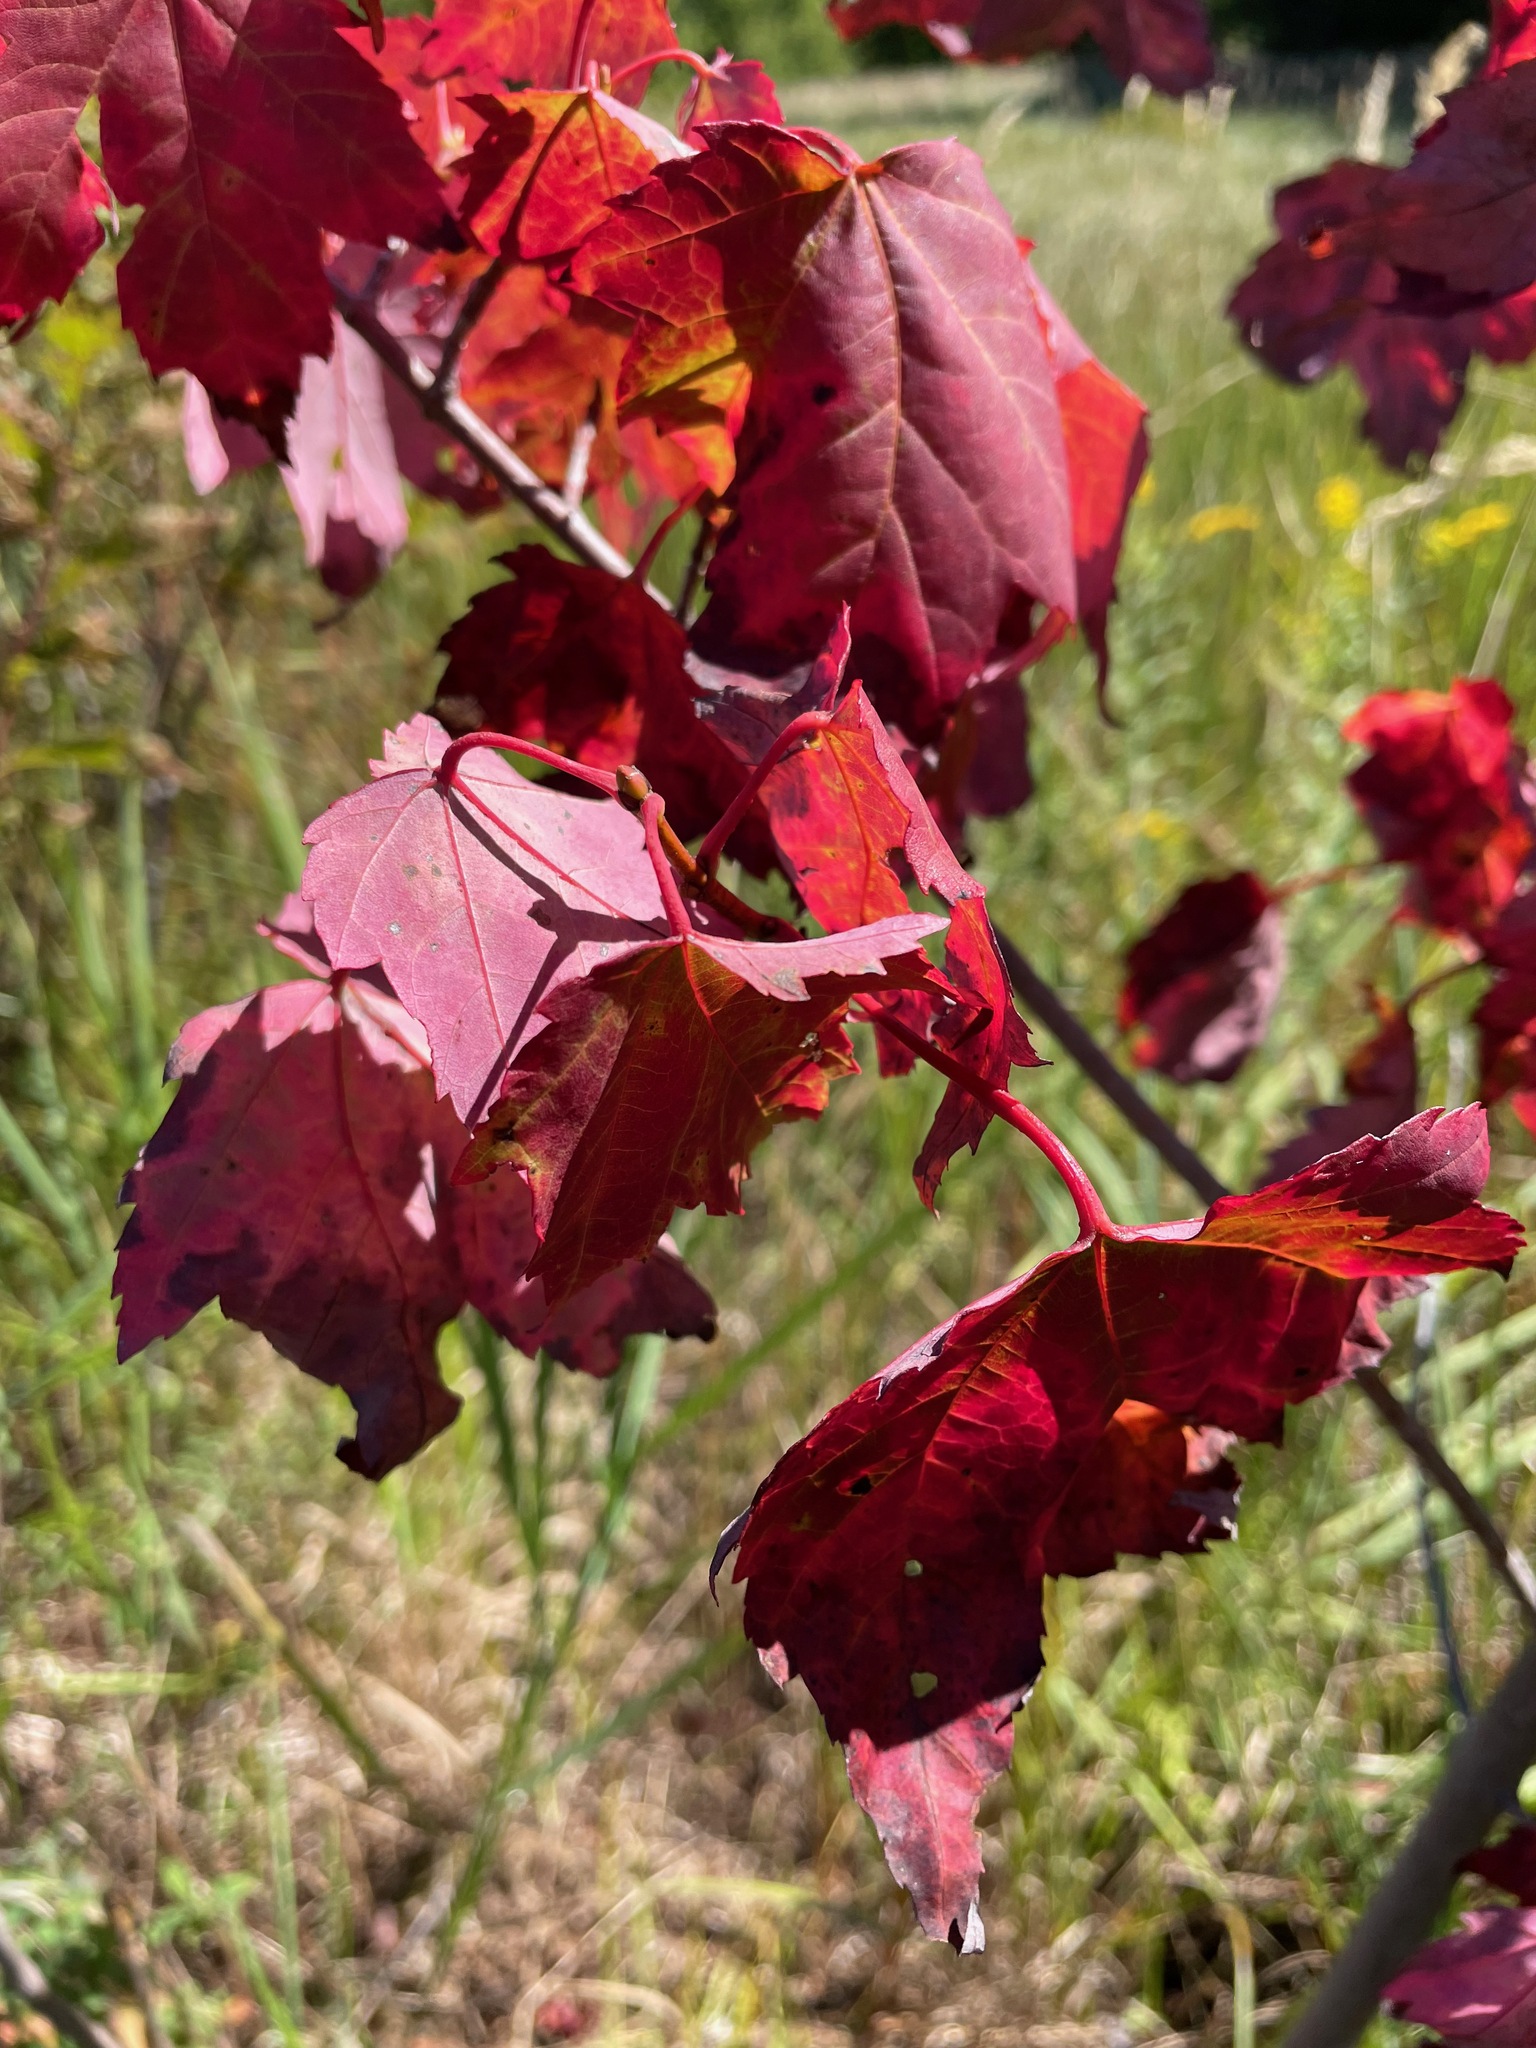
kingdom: Plantae
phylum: Tracheophyta
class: Magnoliopsida
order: Sapindales
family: Sapindaceae
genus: Acer
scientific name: Acer rubrum
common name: Red maple
